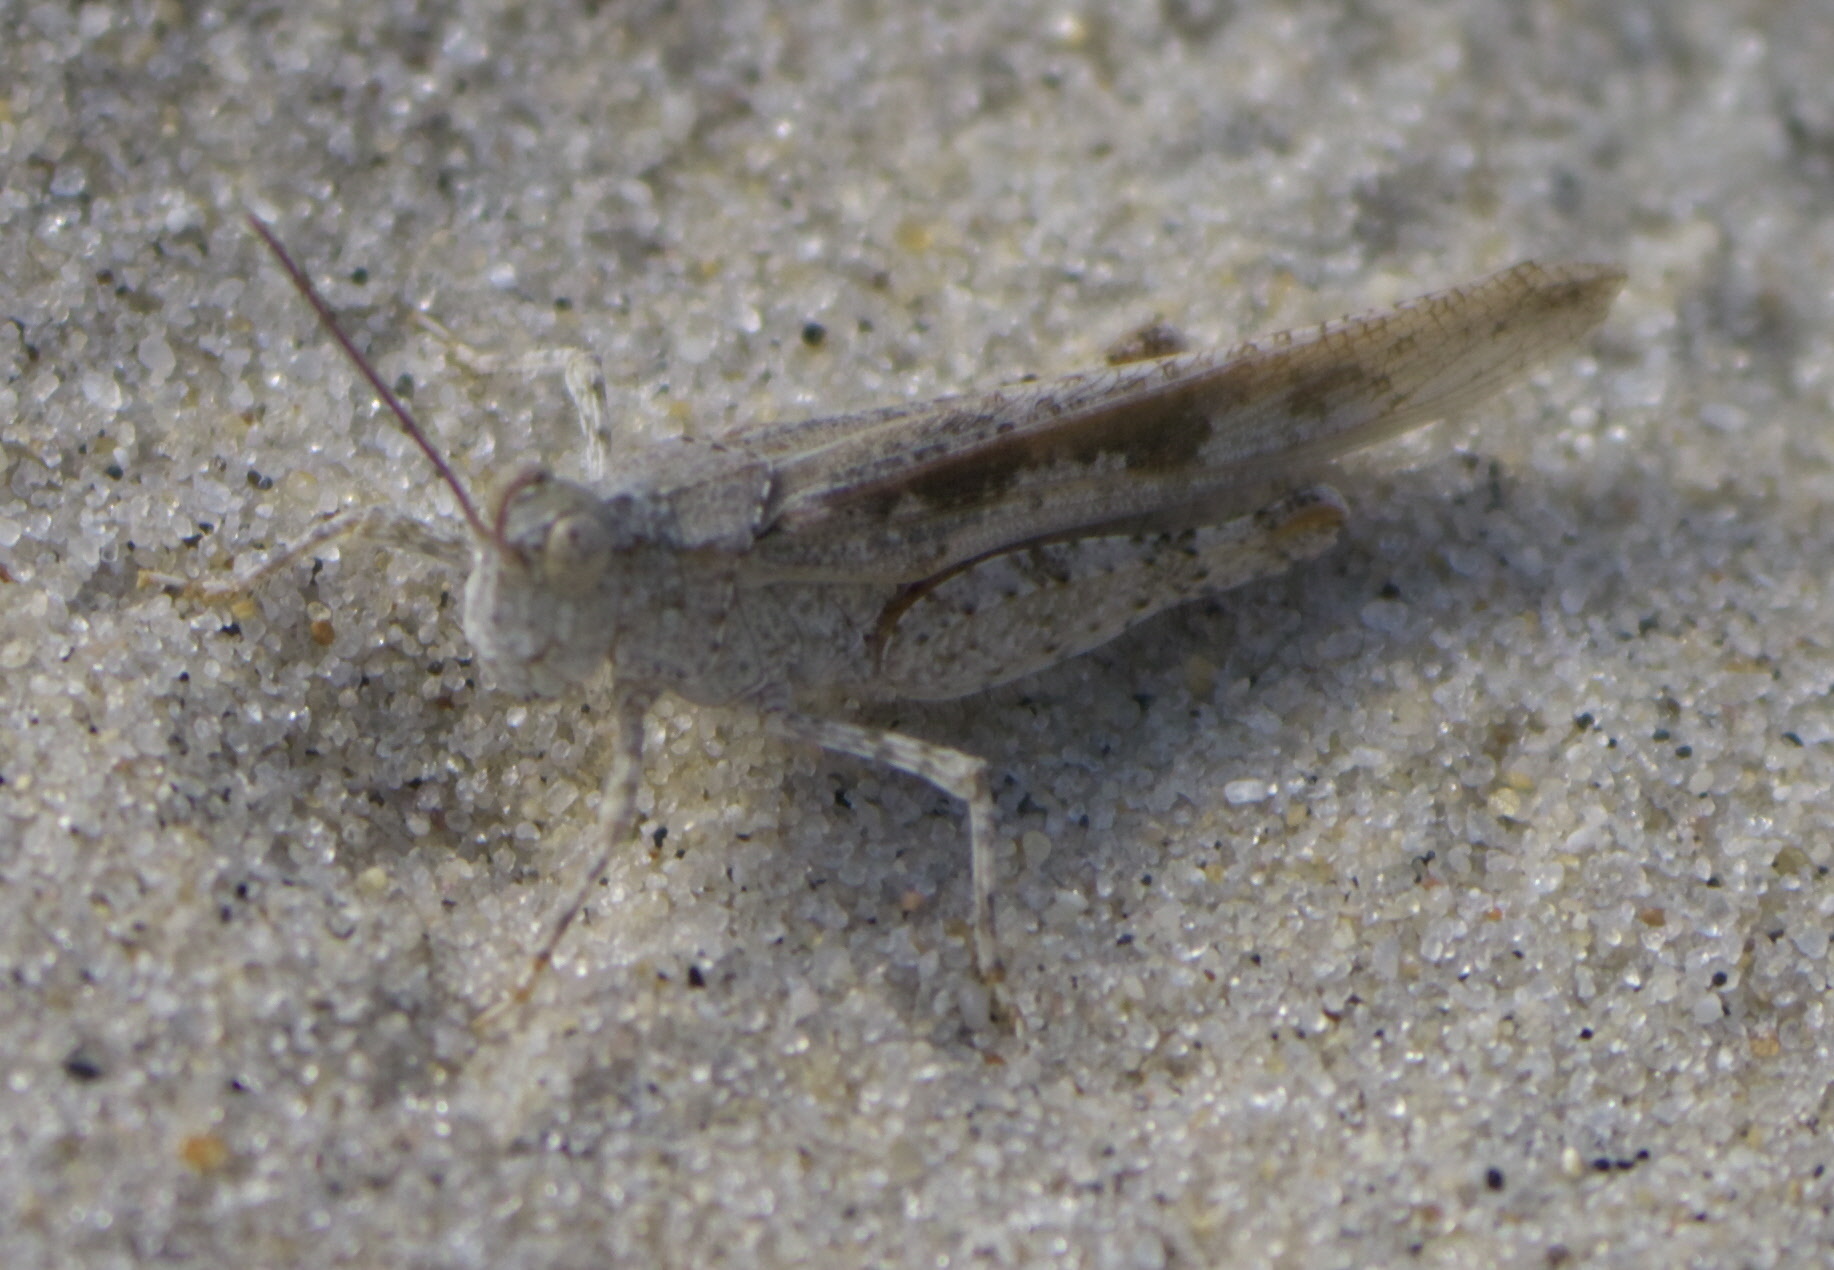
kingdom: Animalia
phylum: Arthropoda
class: Insecta
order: Orthoptera
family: Acrididae
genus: Trimerotropis
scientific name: Trimerotropis maritima
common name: Seaside locust
